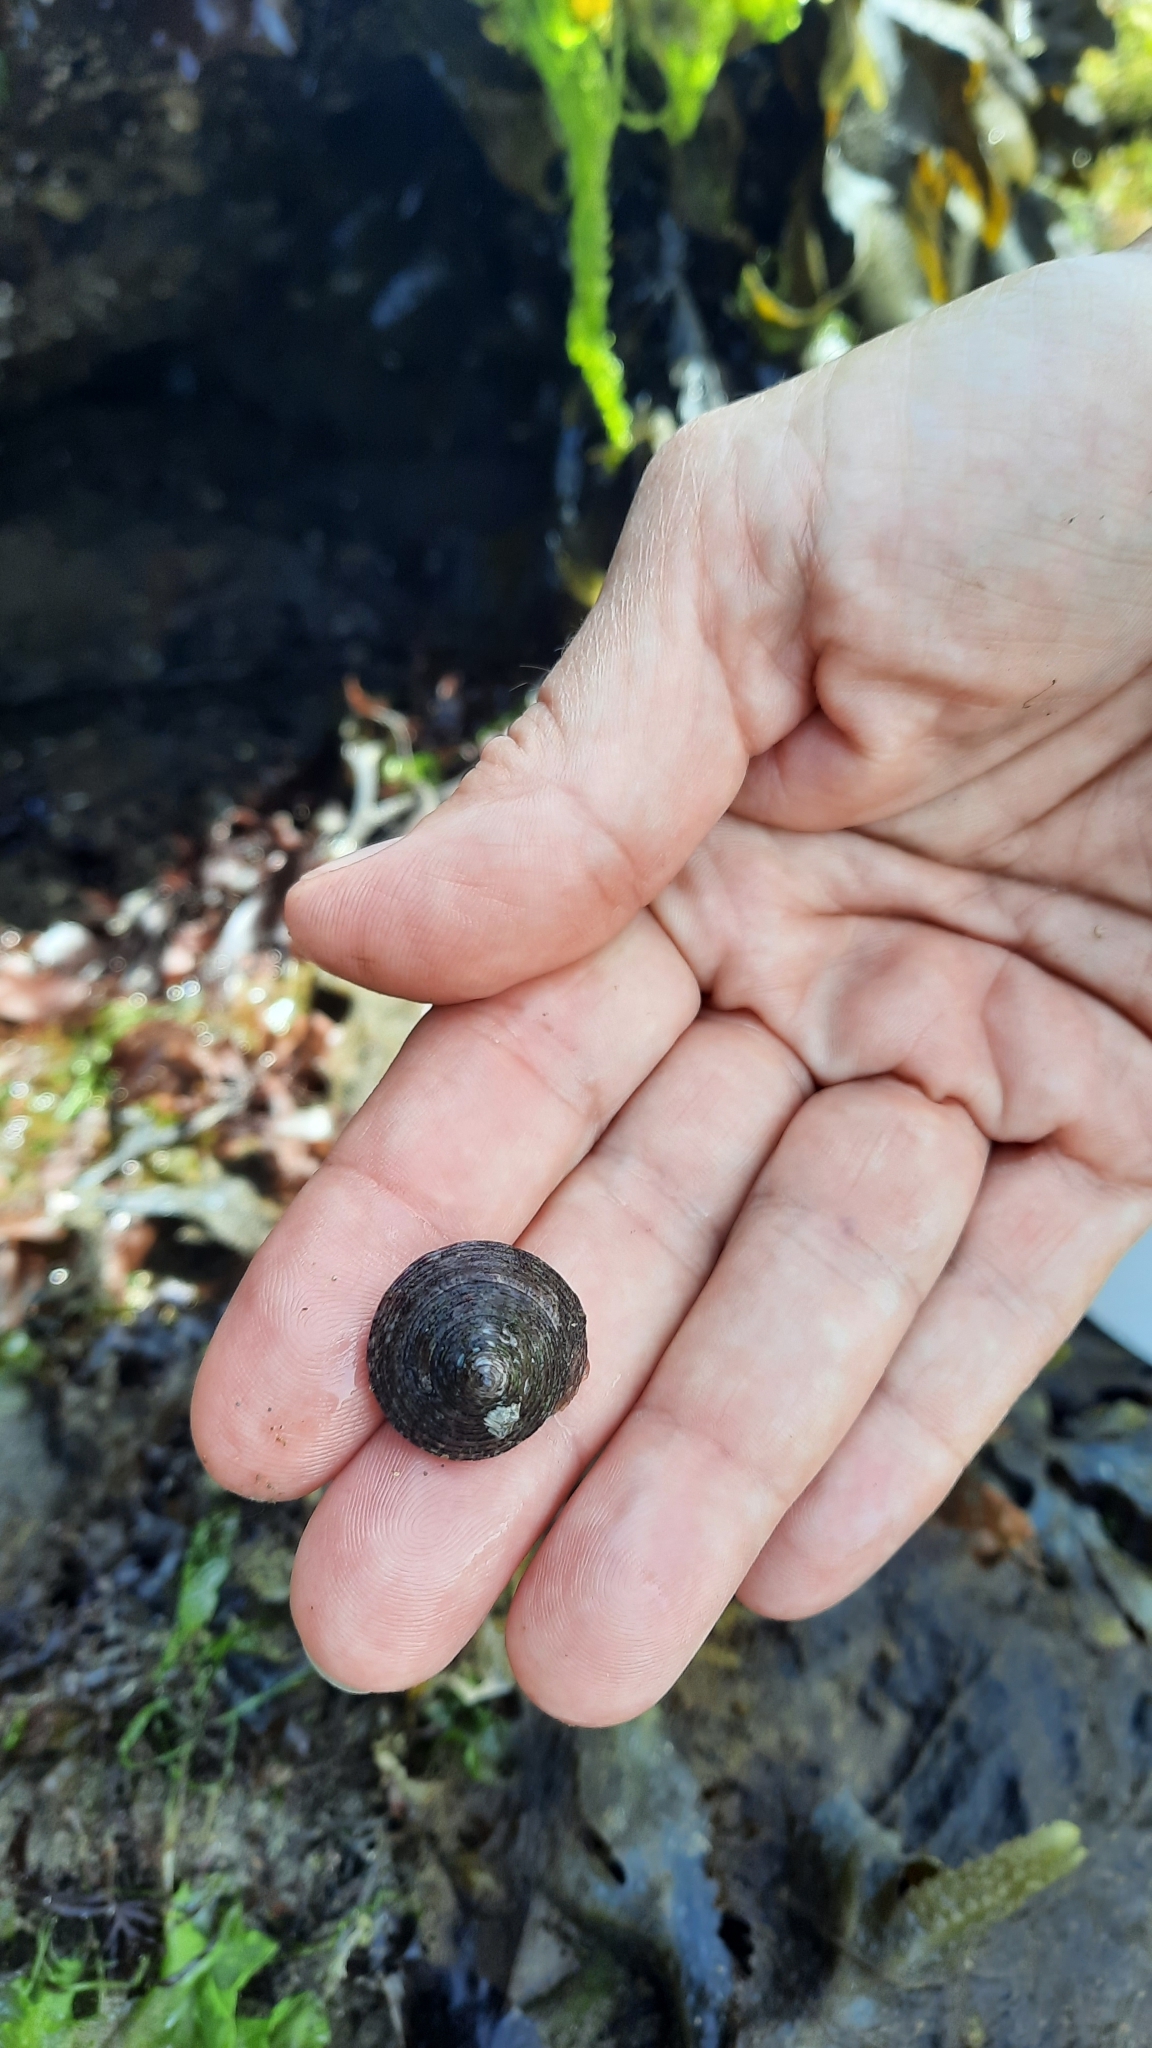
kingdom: Animalia
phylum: Mollusca
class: Gastropoda
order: Trochida
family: Calliostomatidae
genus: Calliostoma
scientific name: Calliostoma zizyphinum
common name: Painted top shell
